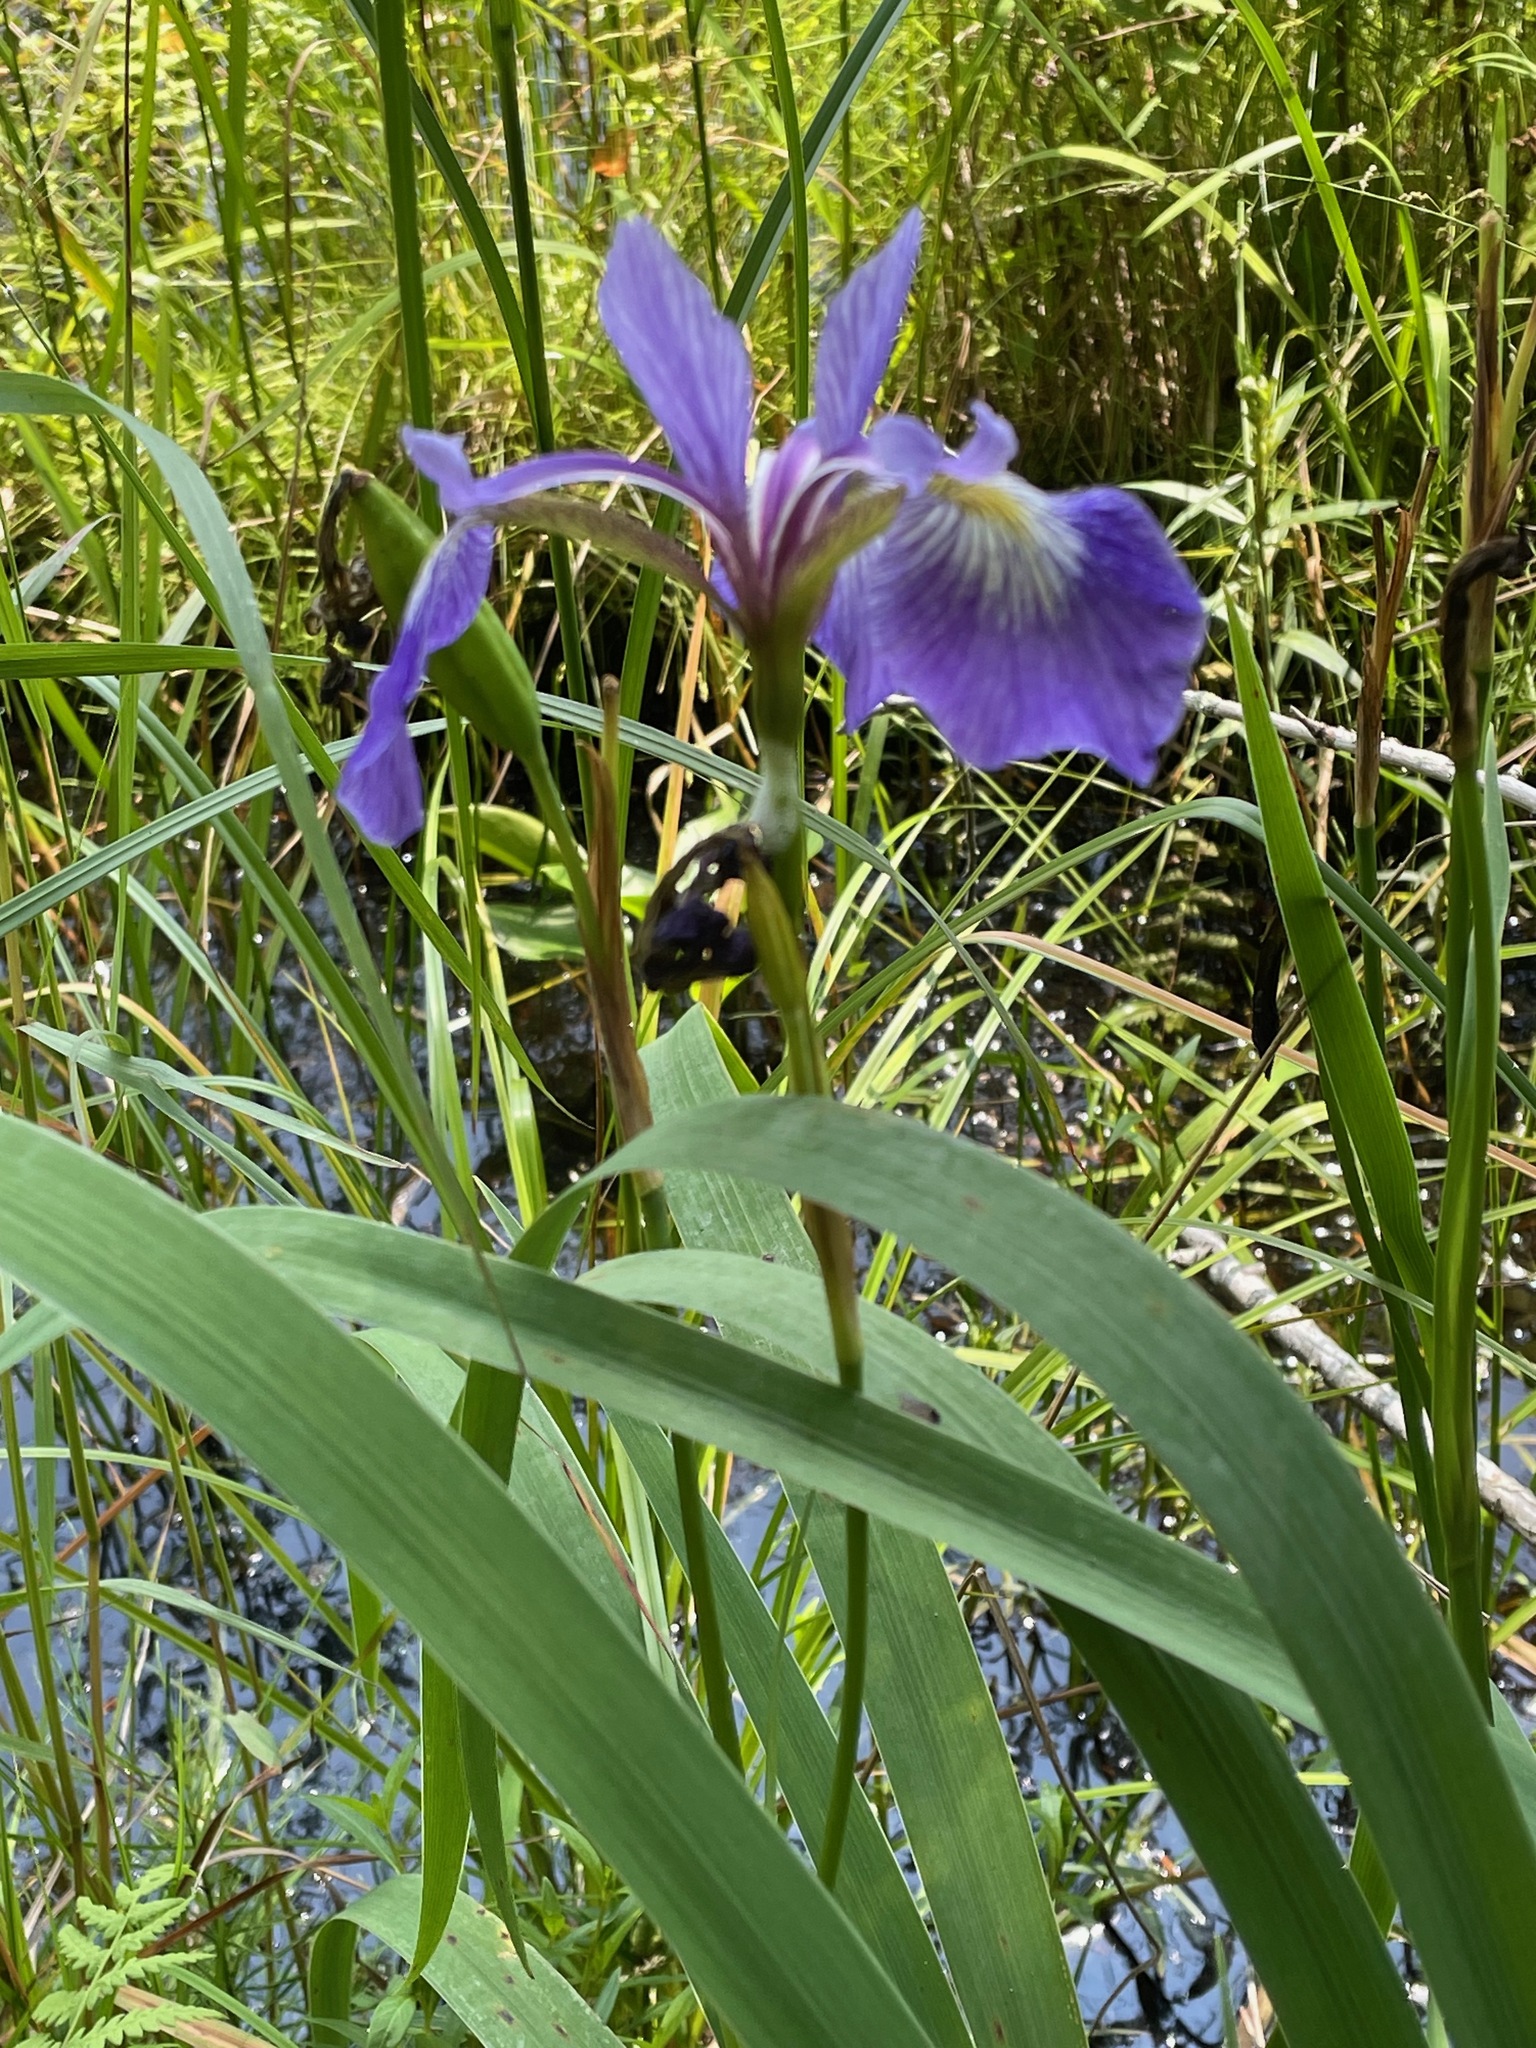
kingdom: Plantae
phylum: Tracheophyta
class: Liliopsida
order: Asparagales
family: Iridaceae
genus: Iris
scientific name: Iris versicolor
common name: Purple iris
